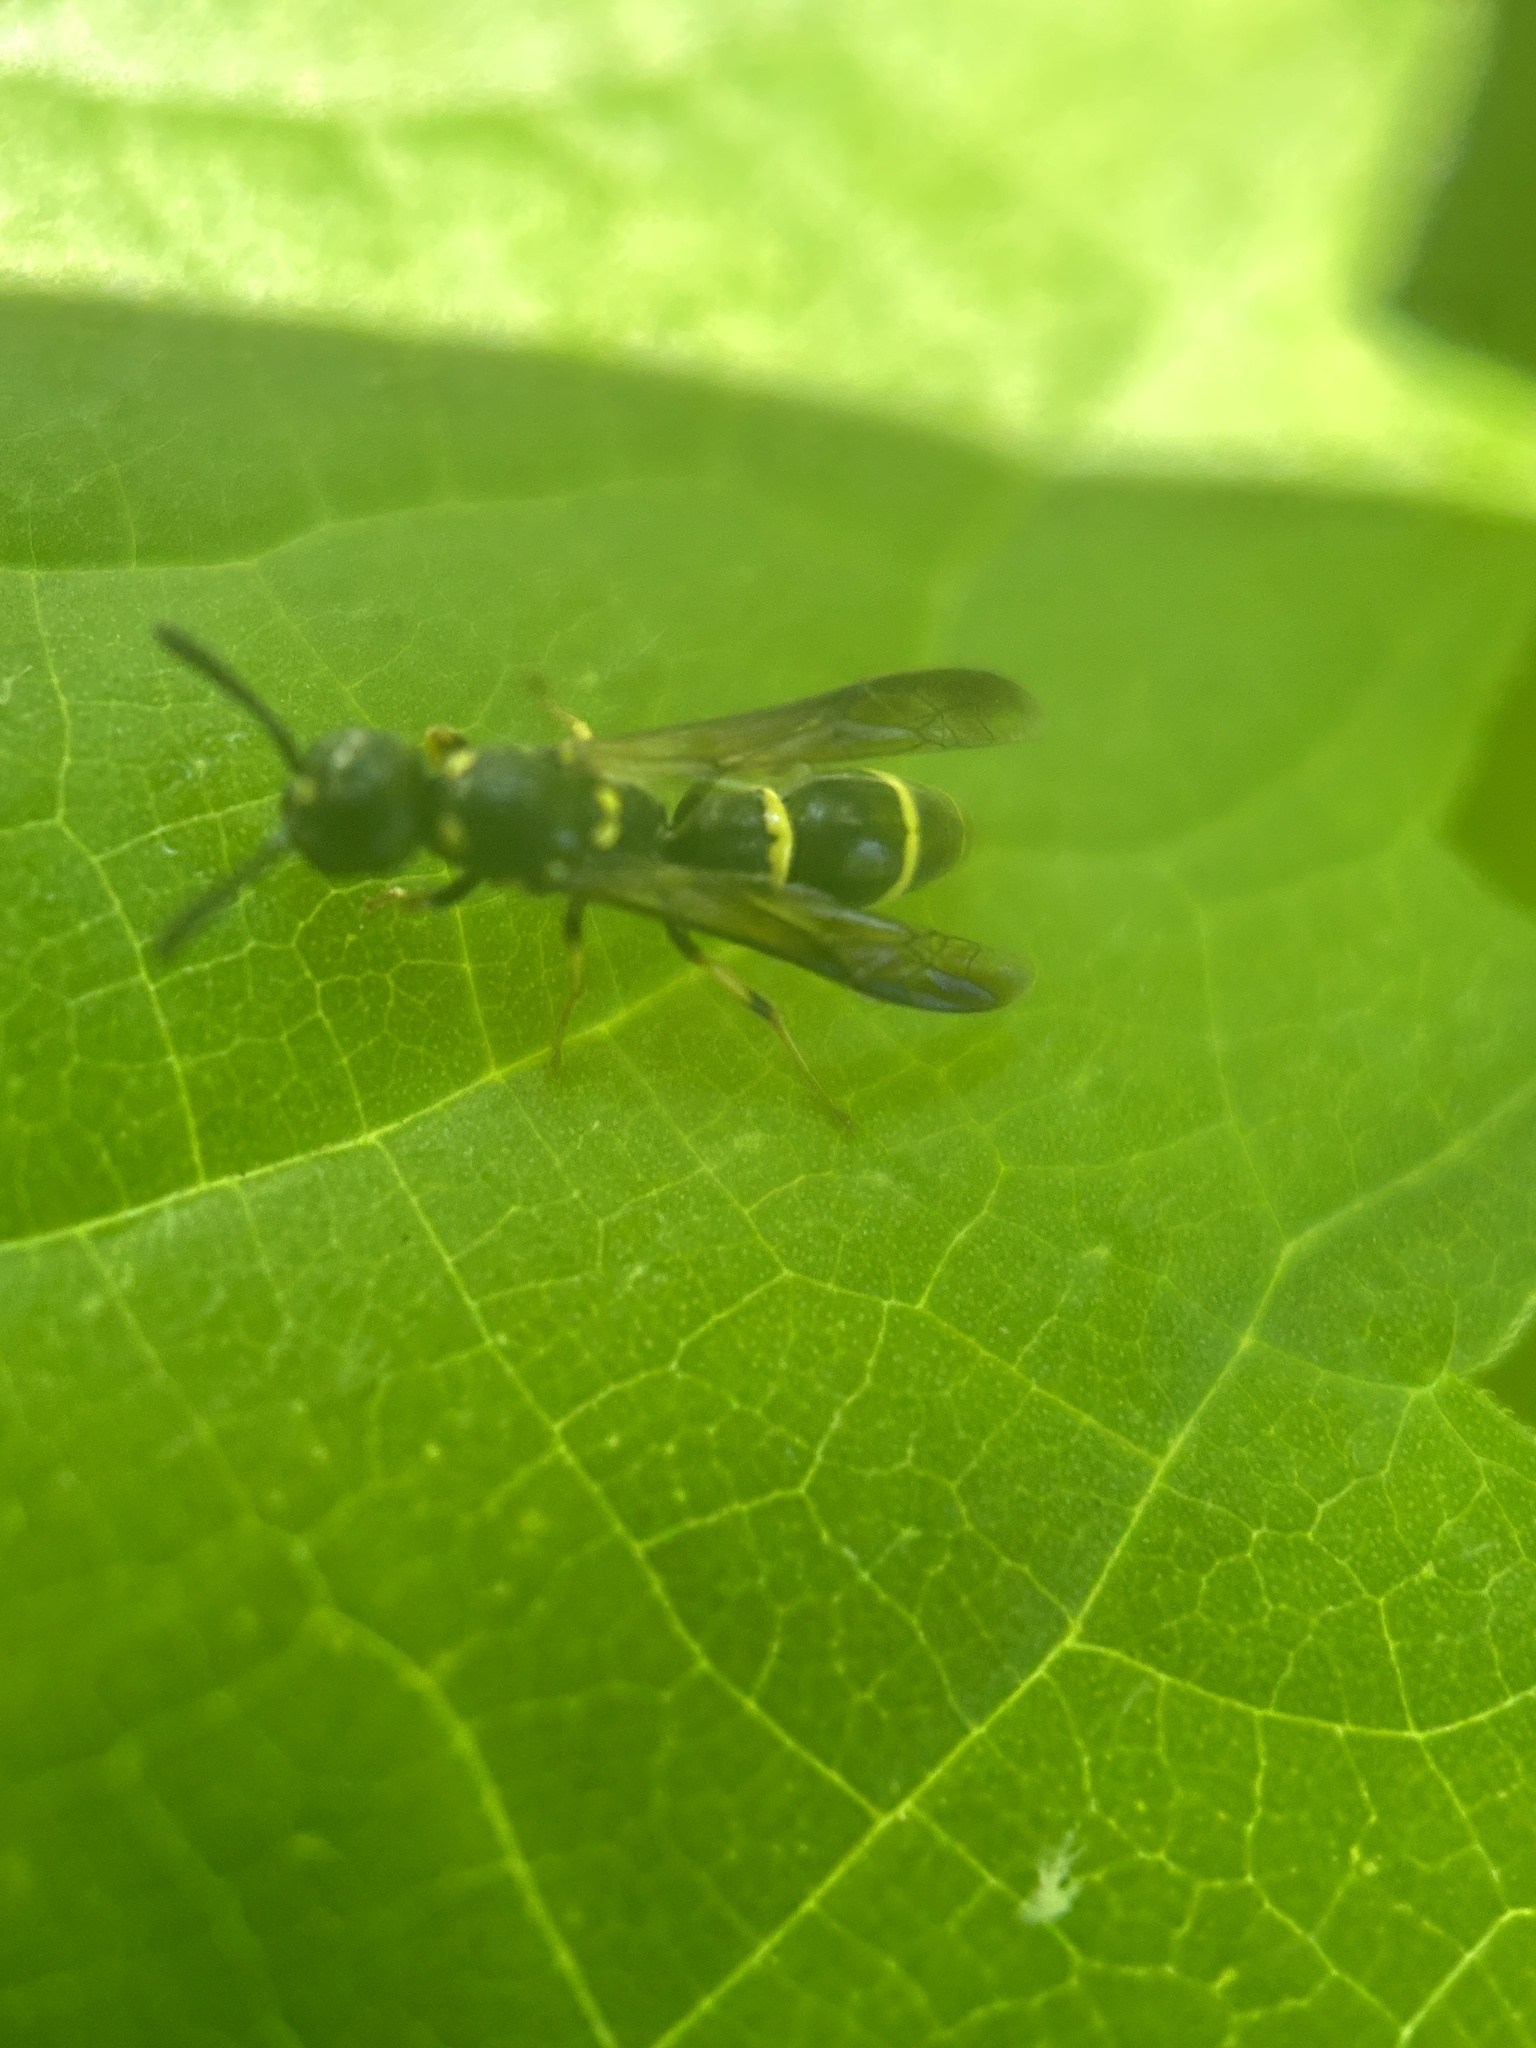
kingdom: Animalia
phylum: Arthropoda
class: Insecta
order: Hymenoptera
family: Eumenidae
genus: Symmorphus
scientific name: Symmorphus
